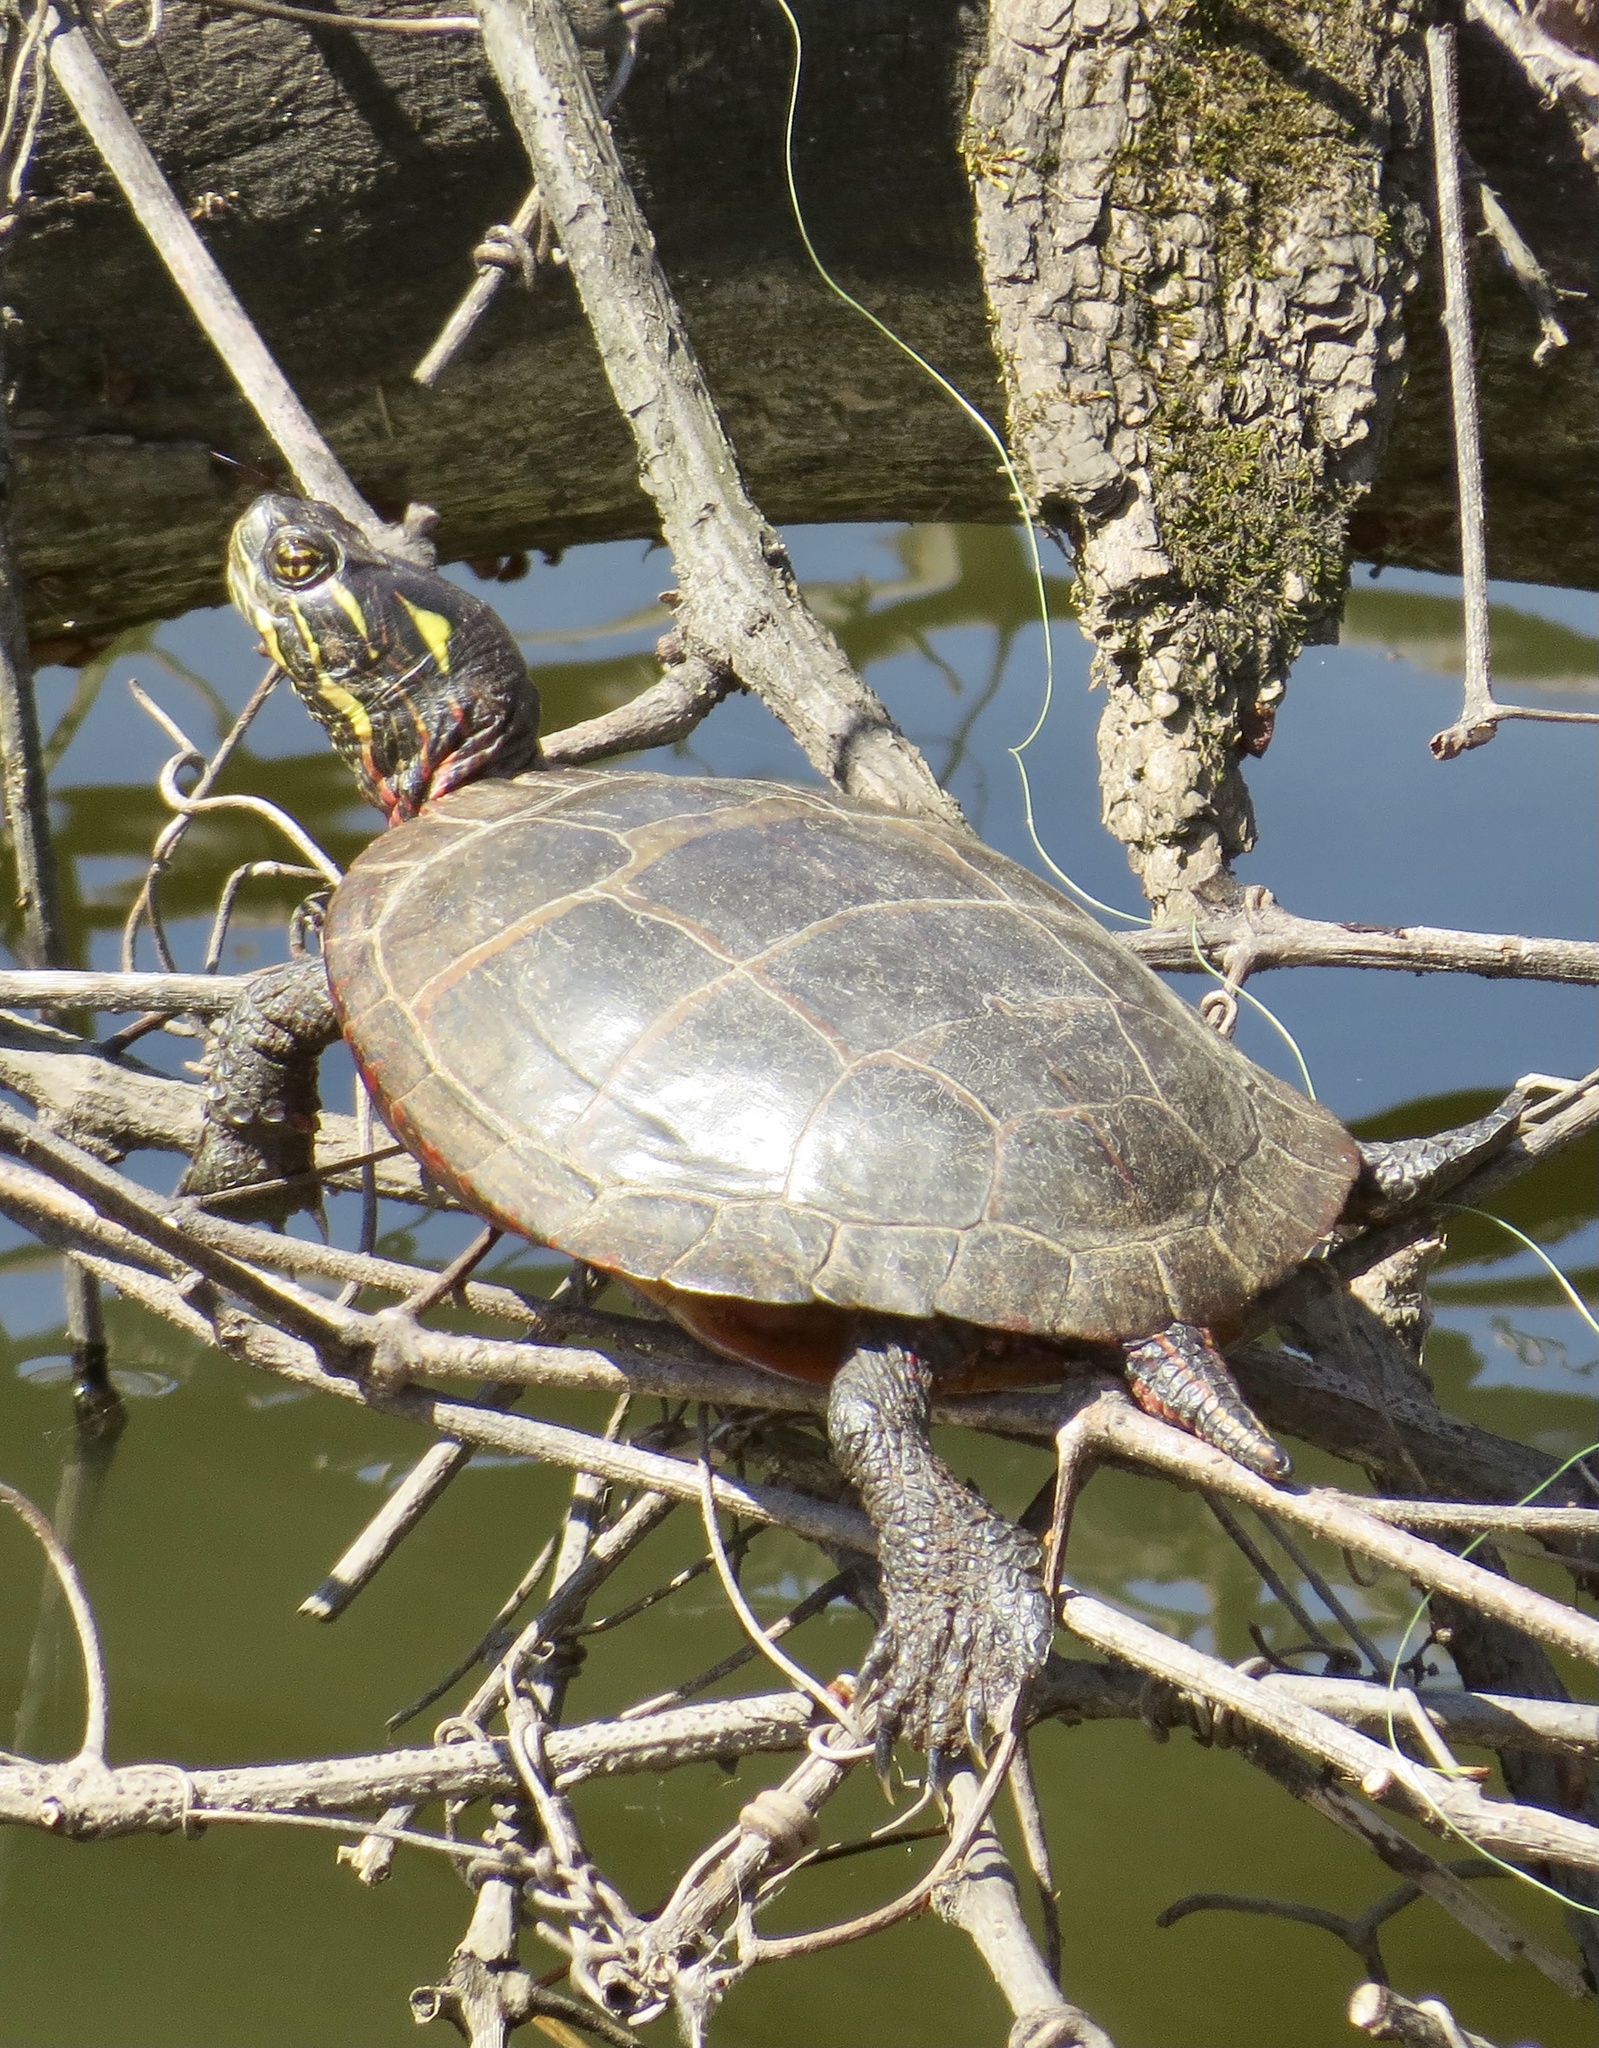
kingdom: Animalia
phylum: Chordata
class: Testudines
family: Emydidae
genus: Chrysemys
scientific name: Chrysemys picta
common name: Painted turtle
